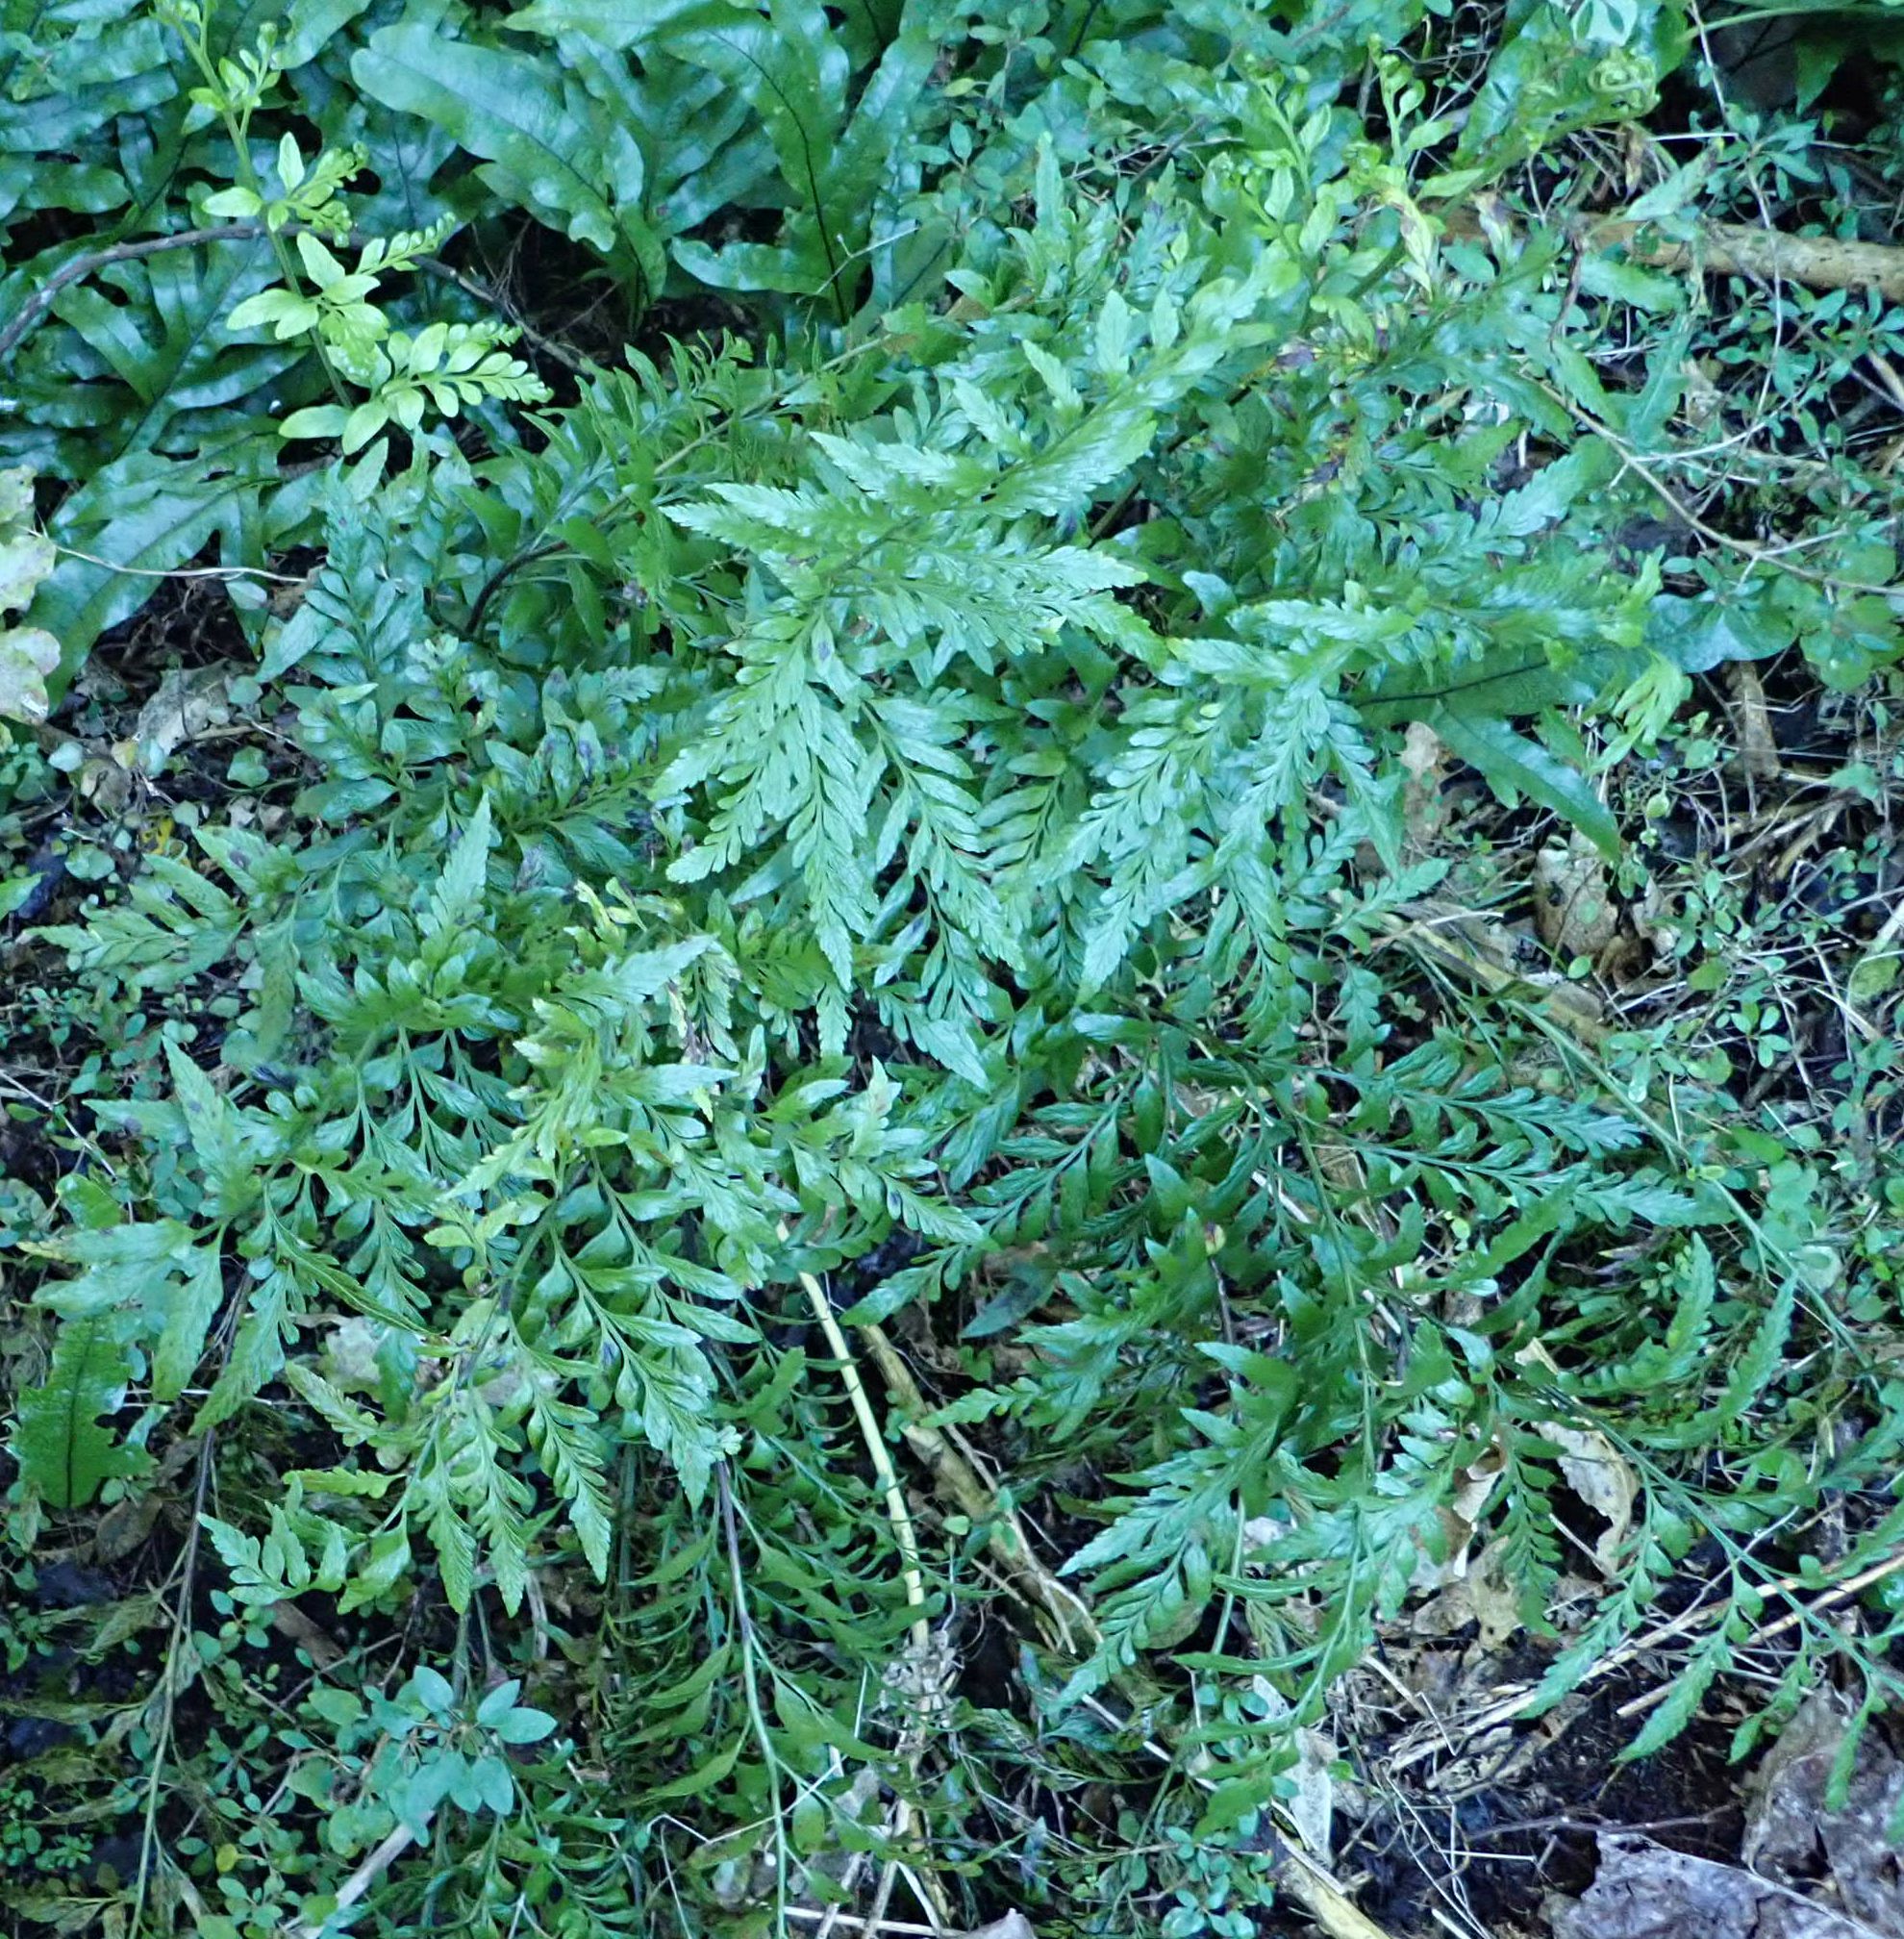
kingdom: Plantae
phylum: Tracheophyta
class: Polypodiopsida
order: Polypodiales
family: Aspleniaceae
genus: Asplenium
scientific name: Asplenium lyallii
